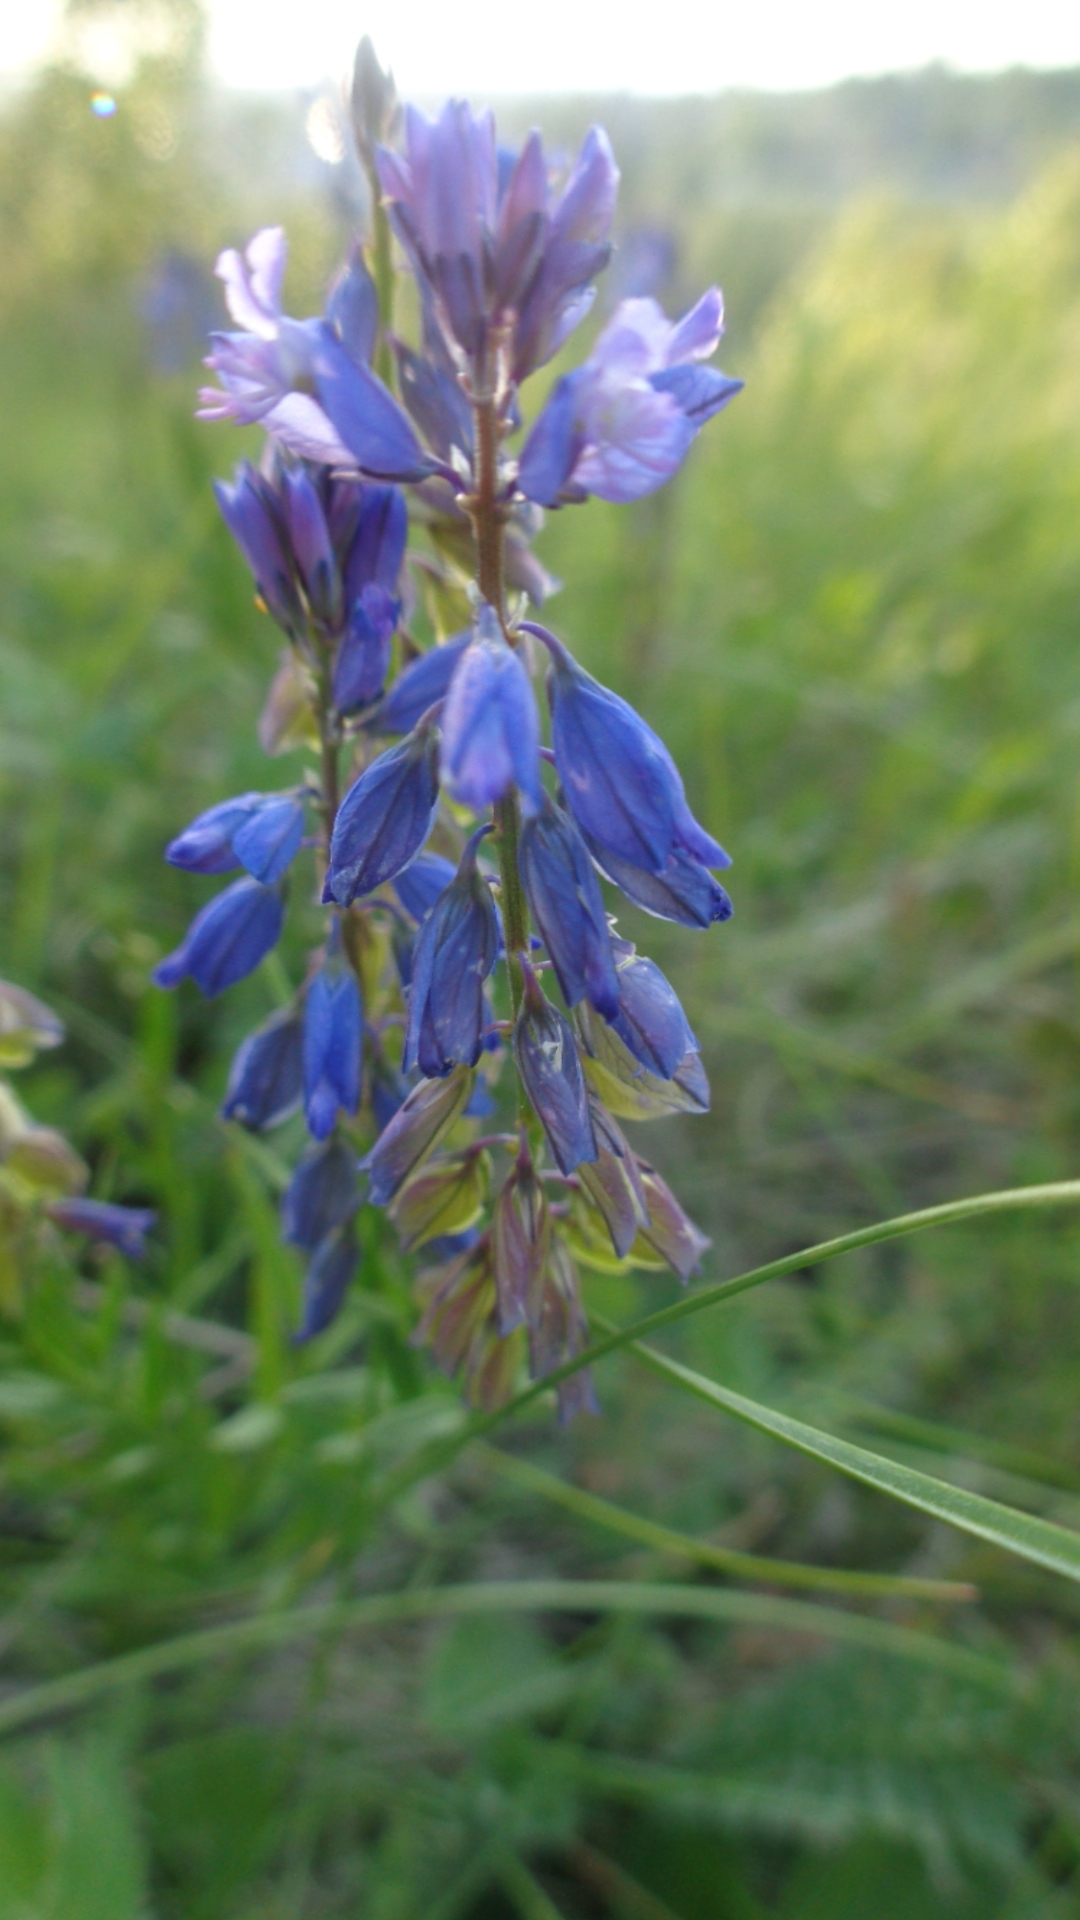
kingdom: Plantae
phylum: Tracheophyta
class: Magnoliopsida
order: Fabales
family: Polygalaceae
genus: Polygala
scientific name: Polygala comosa
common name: Tufted milkwort
